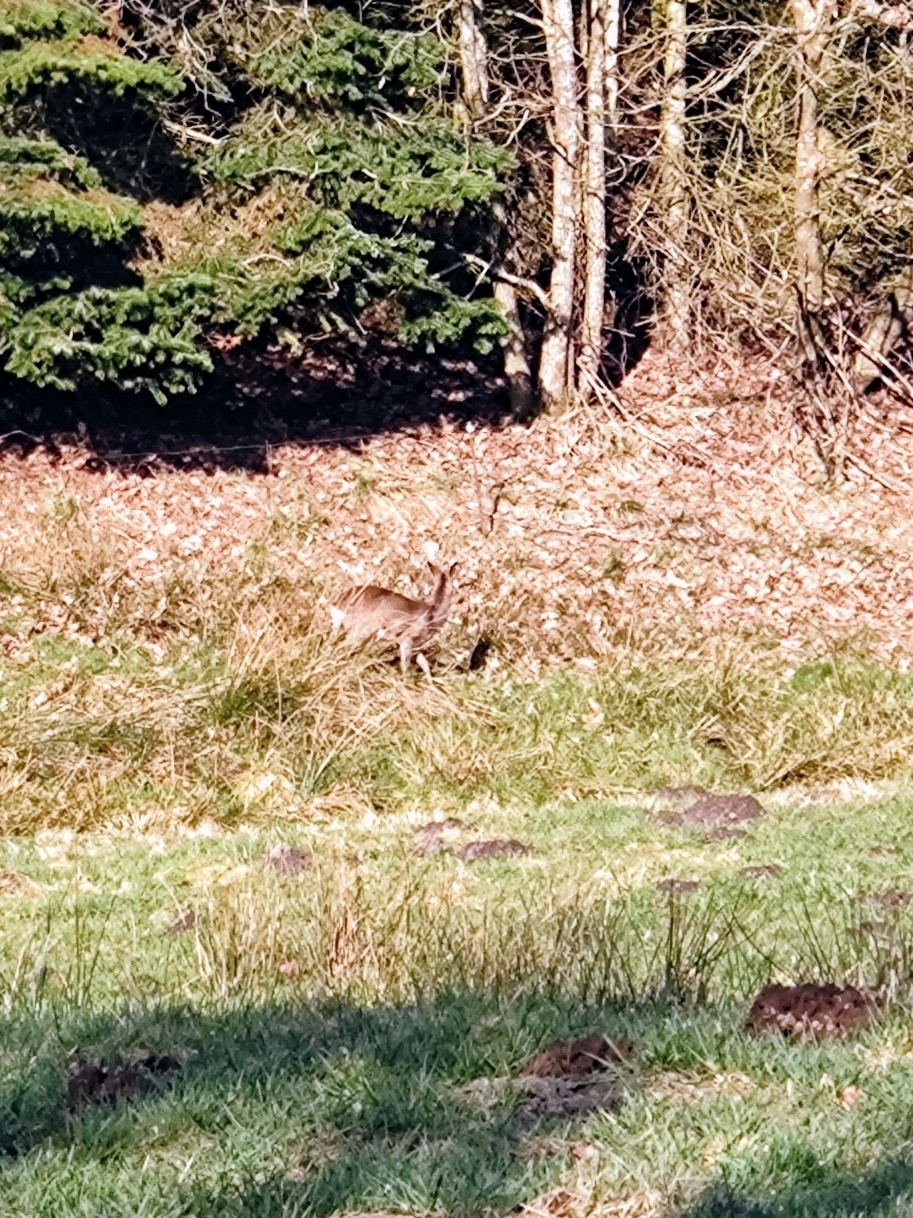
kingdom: Animalia
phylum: Chordata
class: Mammalia
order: Artiodactyla
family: Cervidae
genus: Capreolus
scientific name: Capreolus capreolus
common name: Western roe deer
